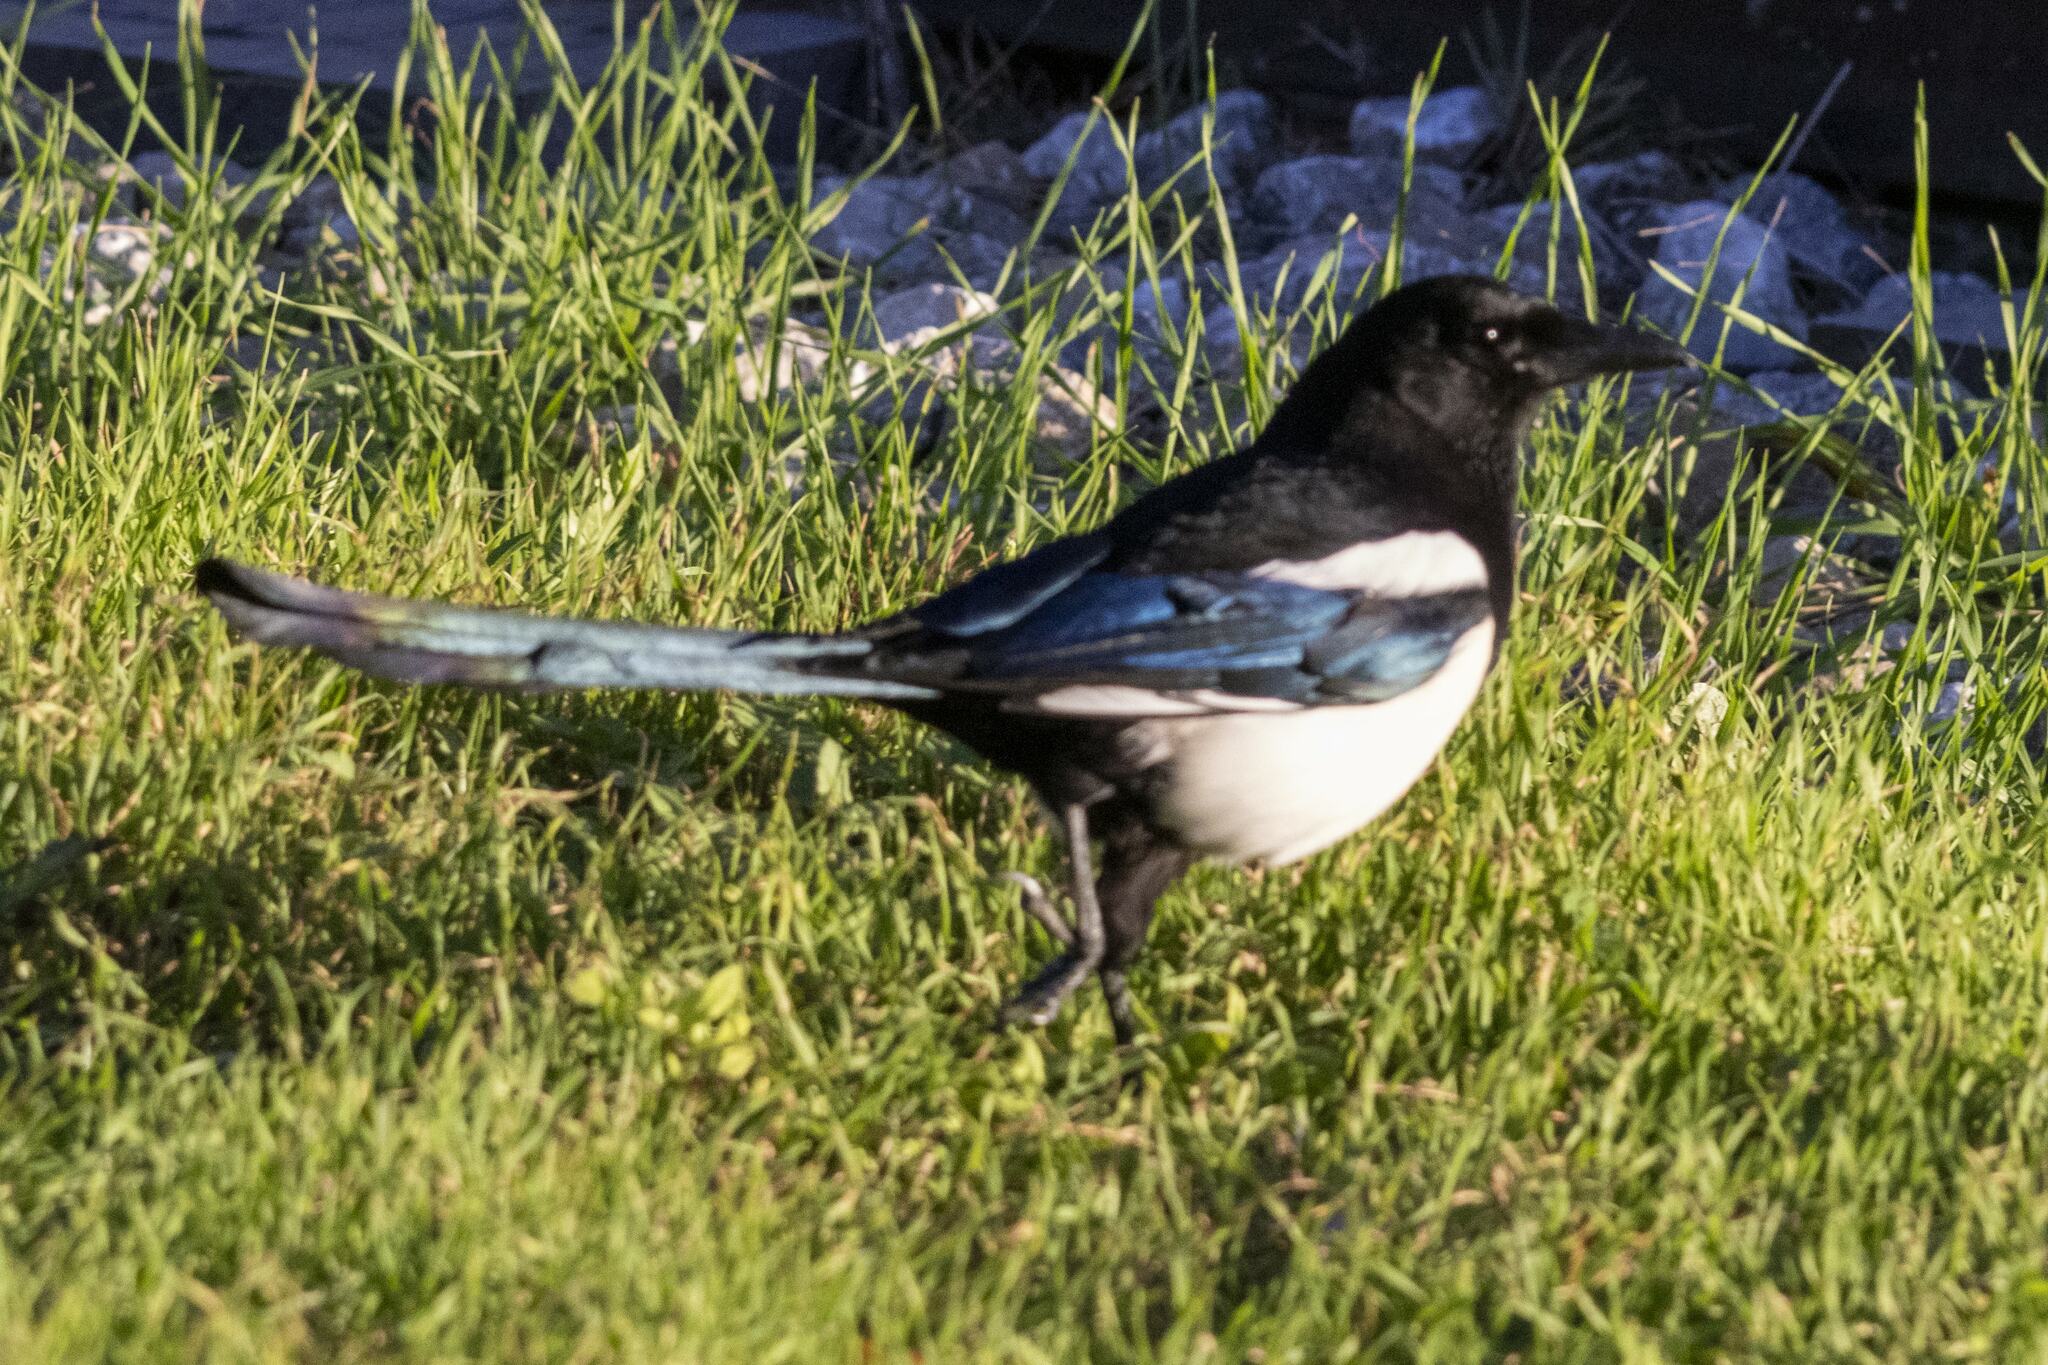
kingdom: Animalia
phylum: Chordata
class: Aves
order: Passeriformes
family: Corvidae
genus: Pica
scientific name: Pica pica
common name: Eurasian magpie
